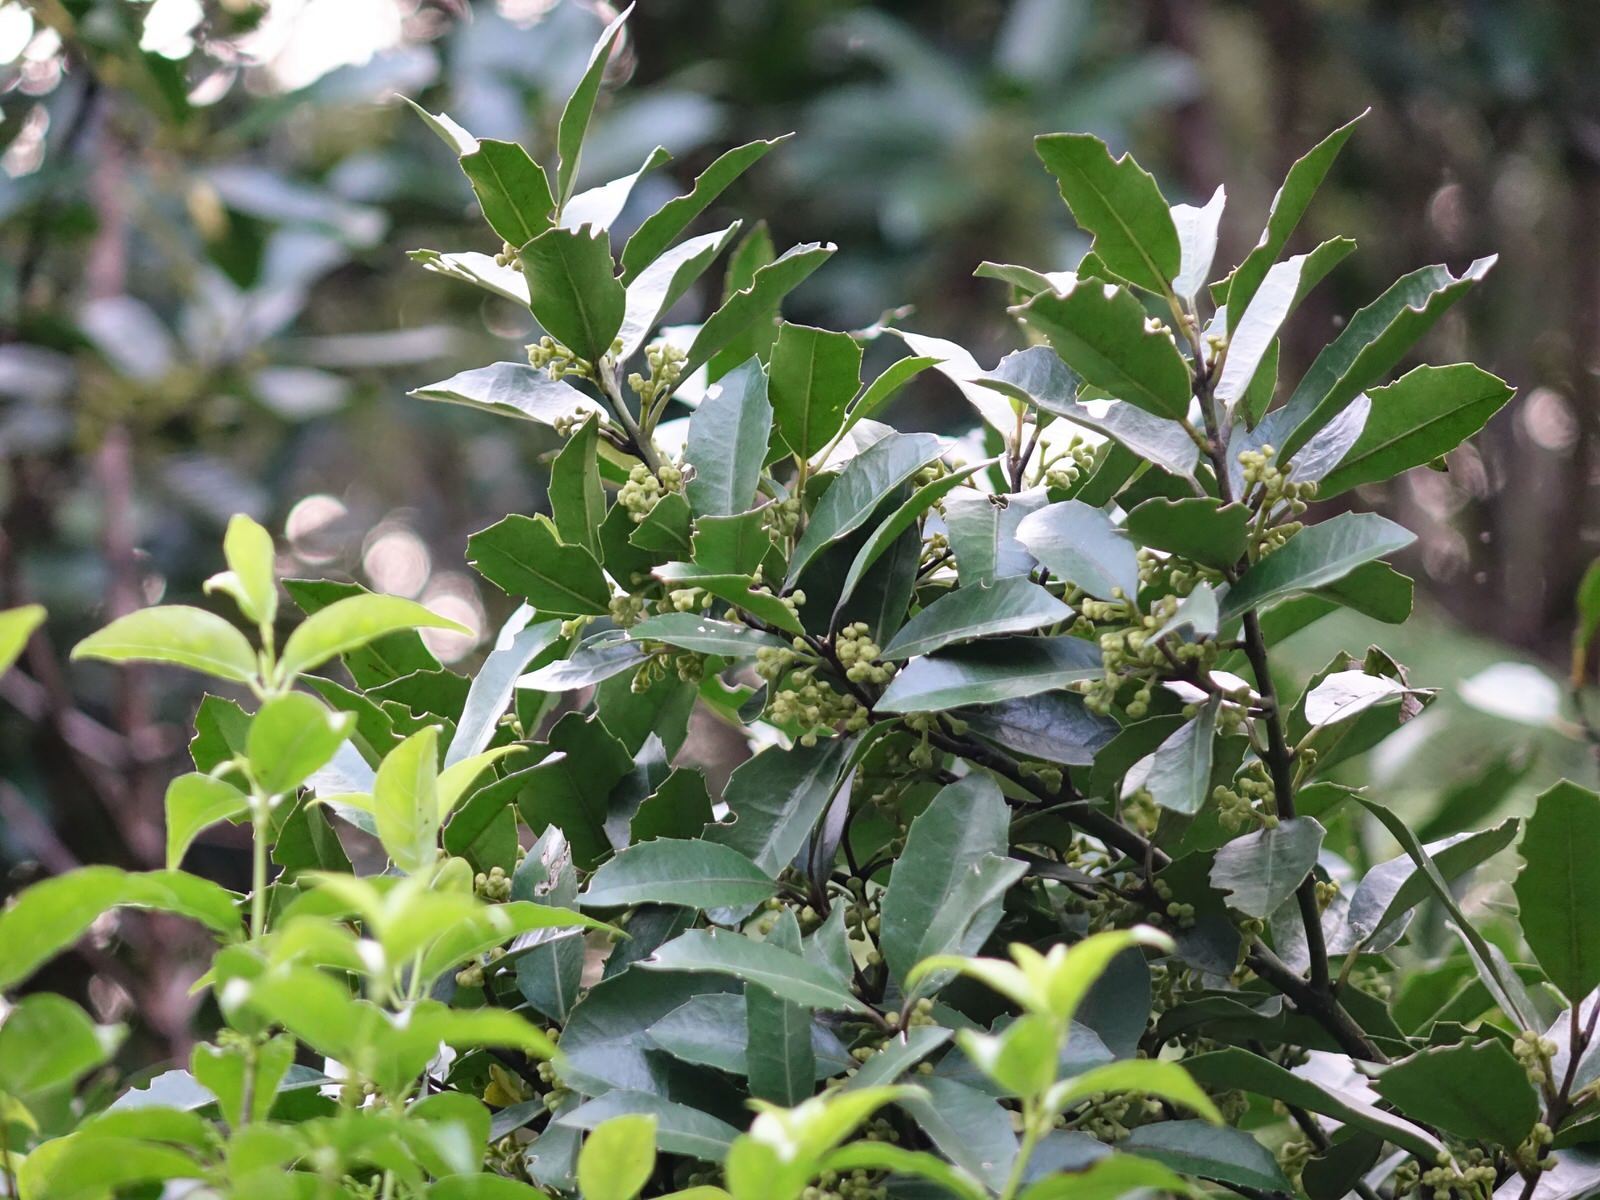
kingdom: Plantae
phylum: Tracheophyta
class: Magnoliopsida
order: Laurales
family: Monimiaceae
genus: Hedycarya
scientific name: Hedycarya arborea
